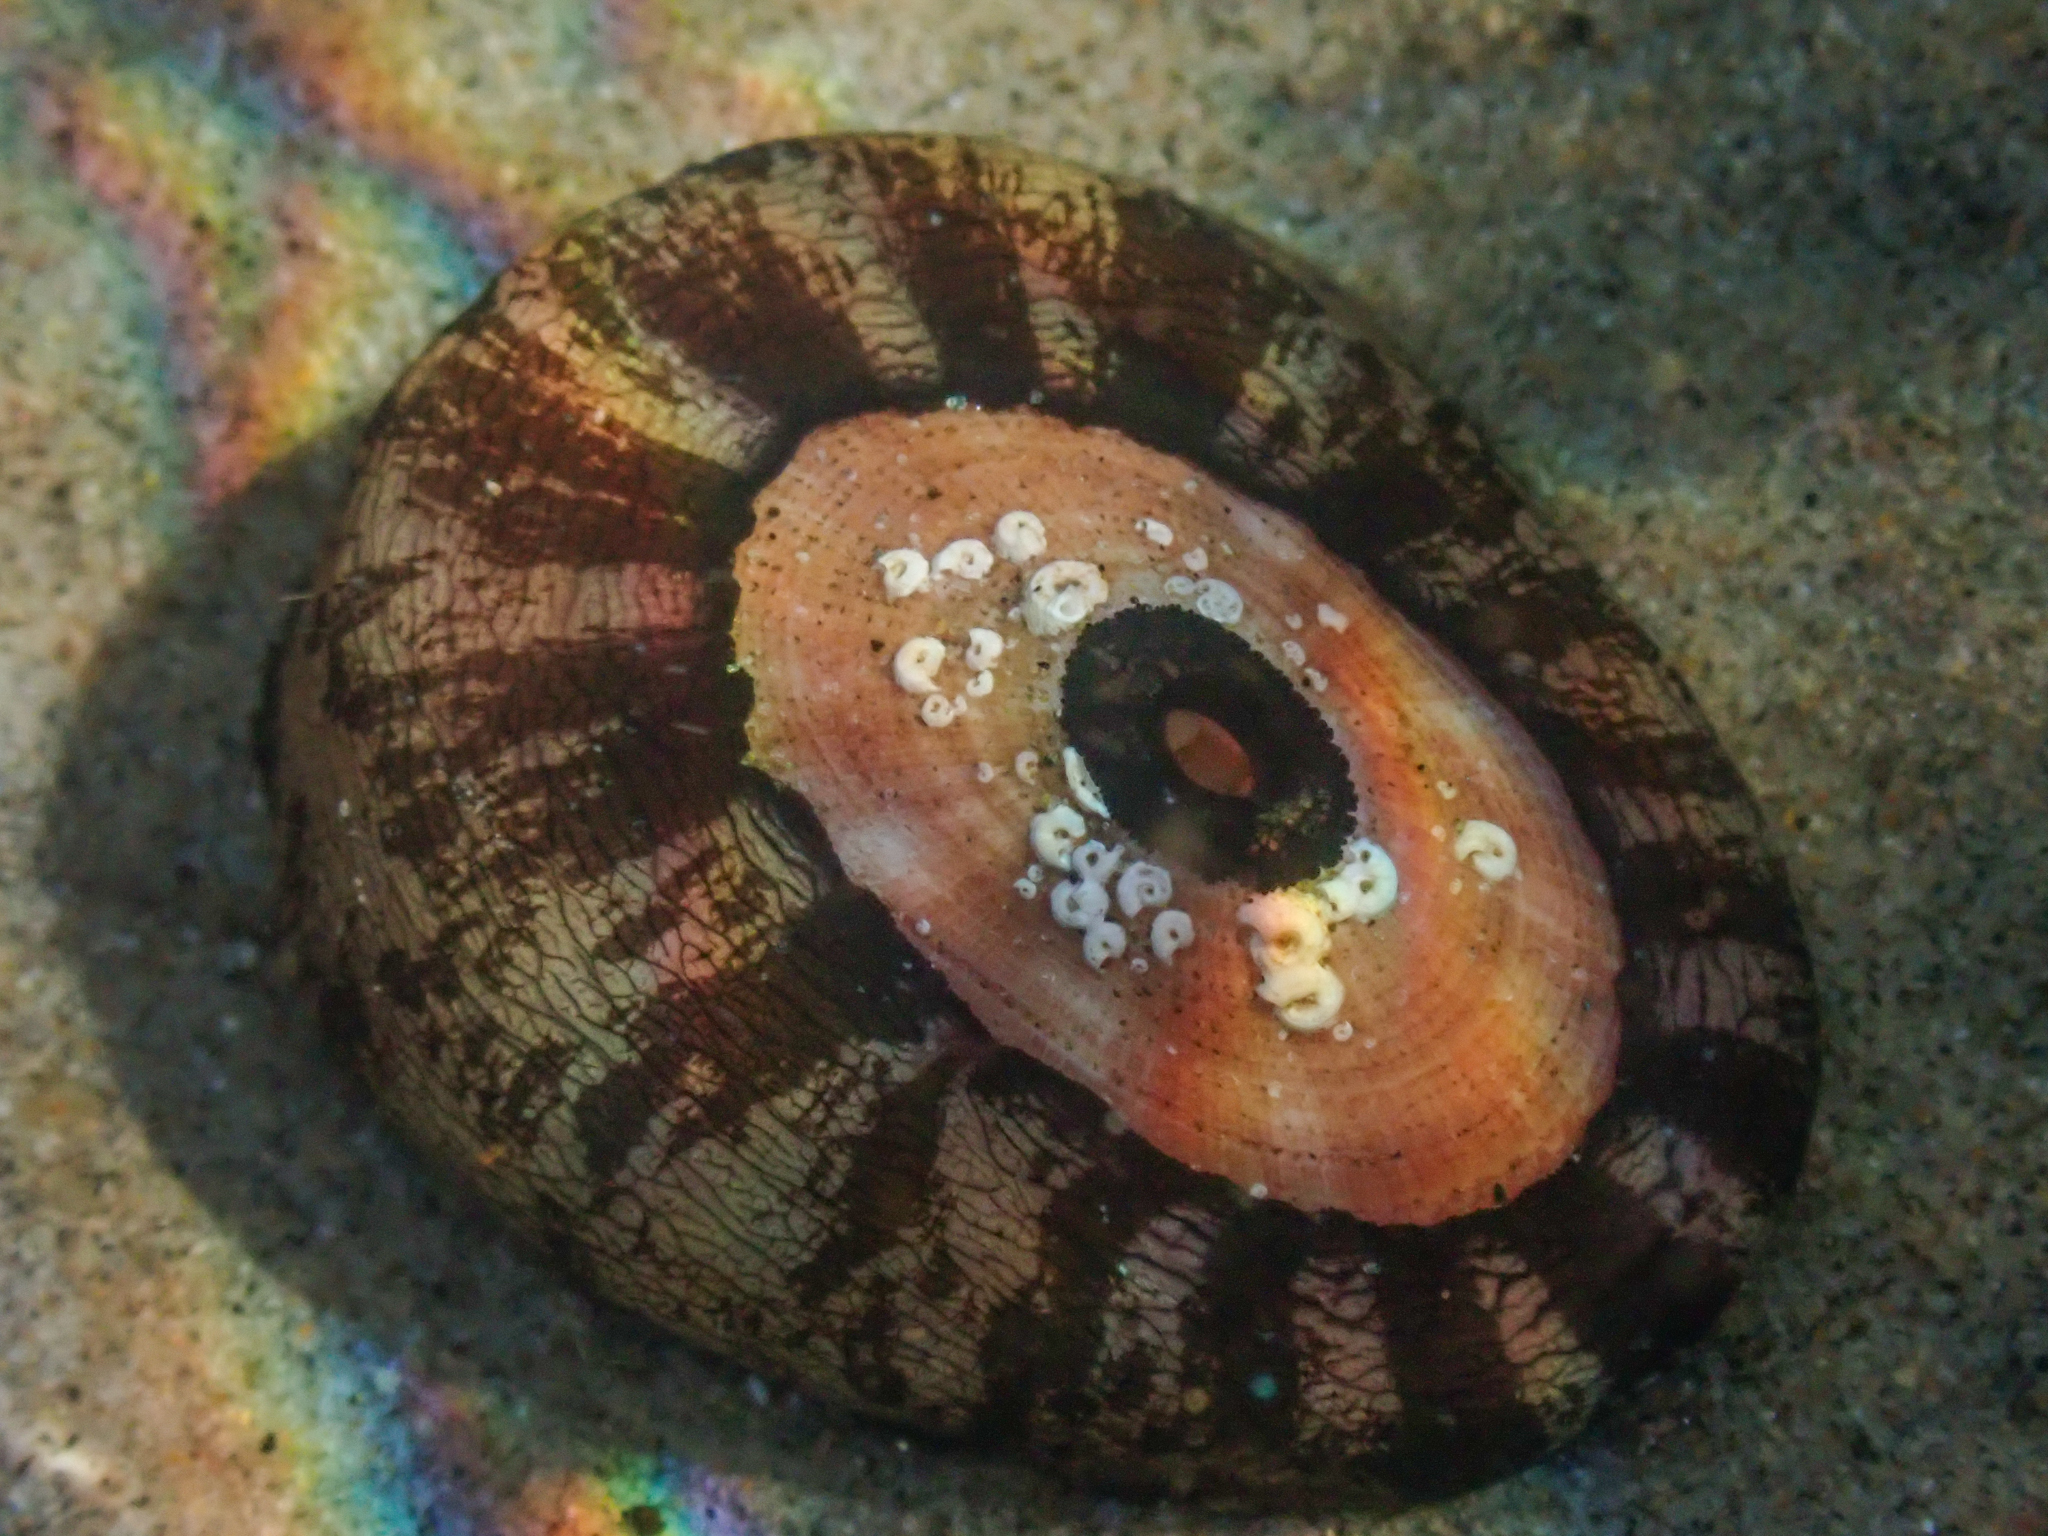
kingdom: Animalia
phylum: Mollusca
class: Gastropoda
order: Lepetellida
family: Fissurellidae
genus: Megathura
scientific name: Megathura crenulata
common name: Giant keyhole limpet
